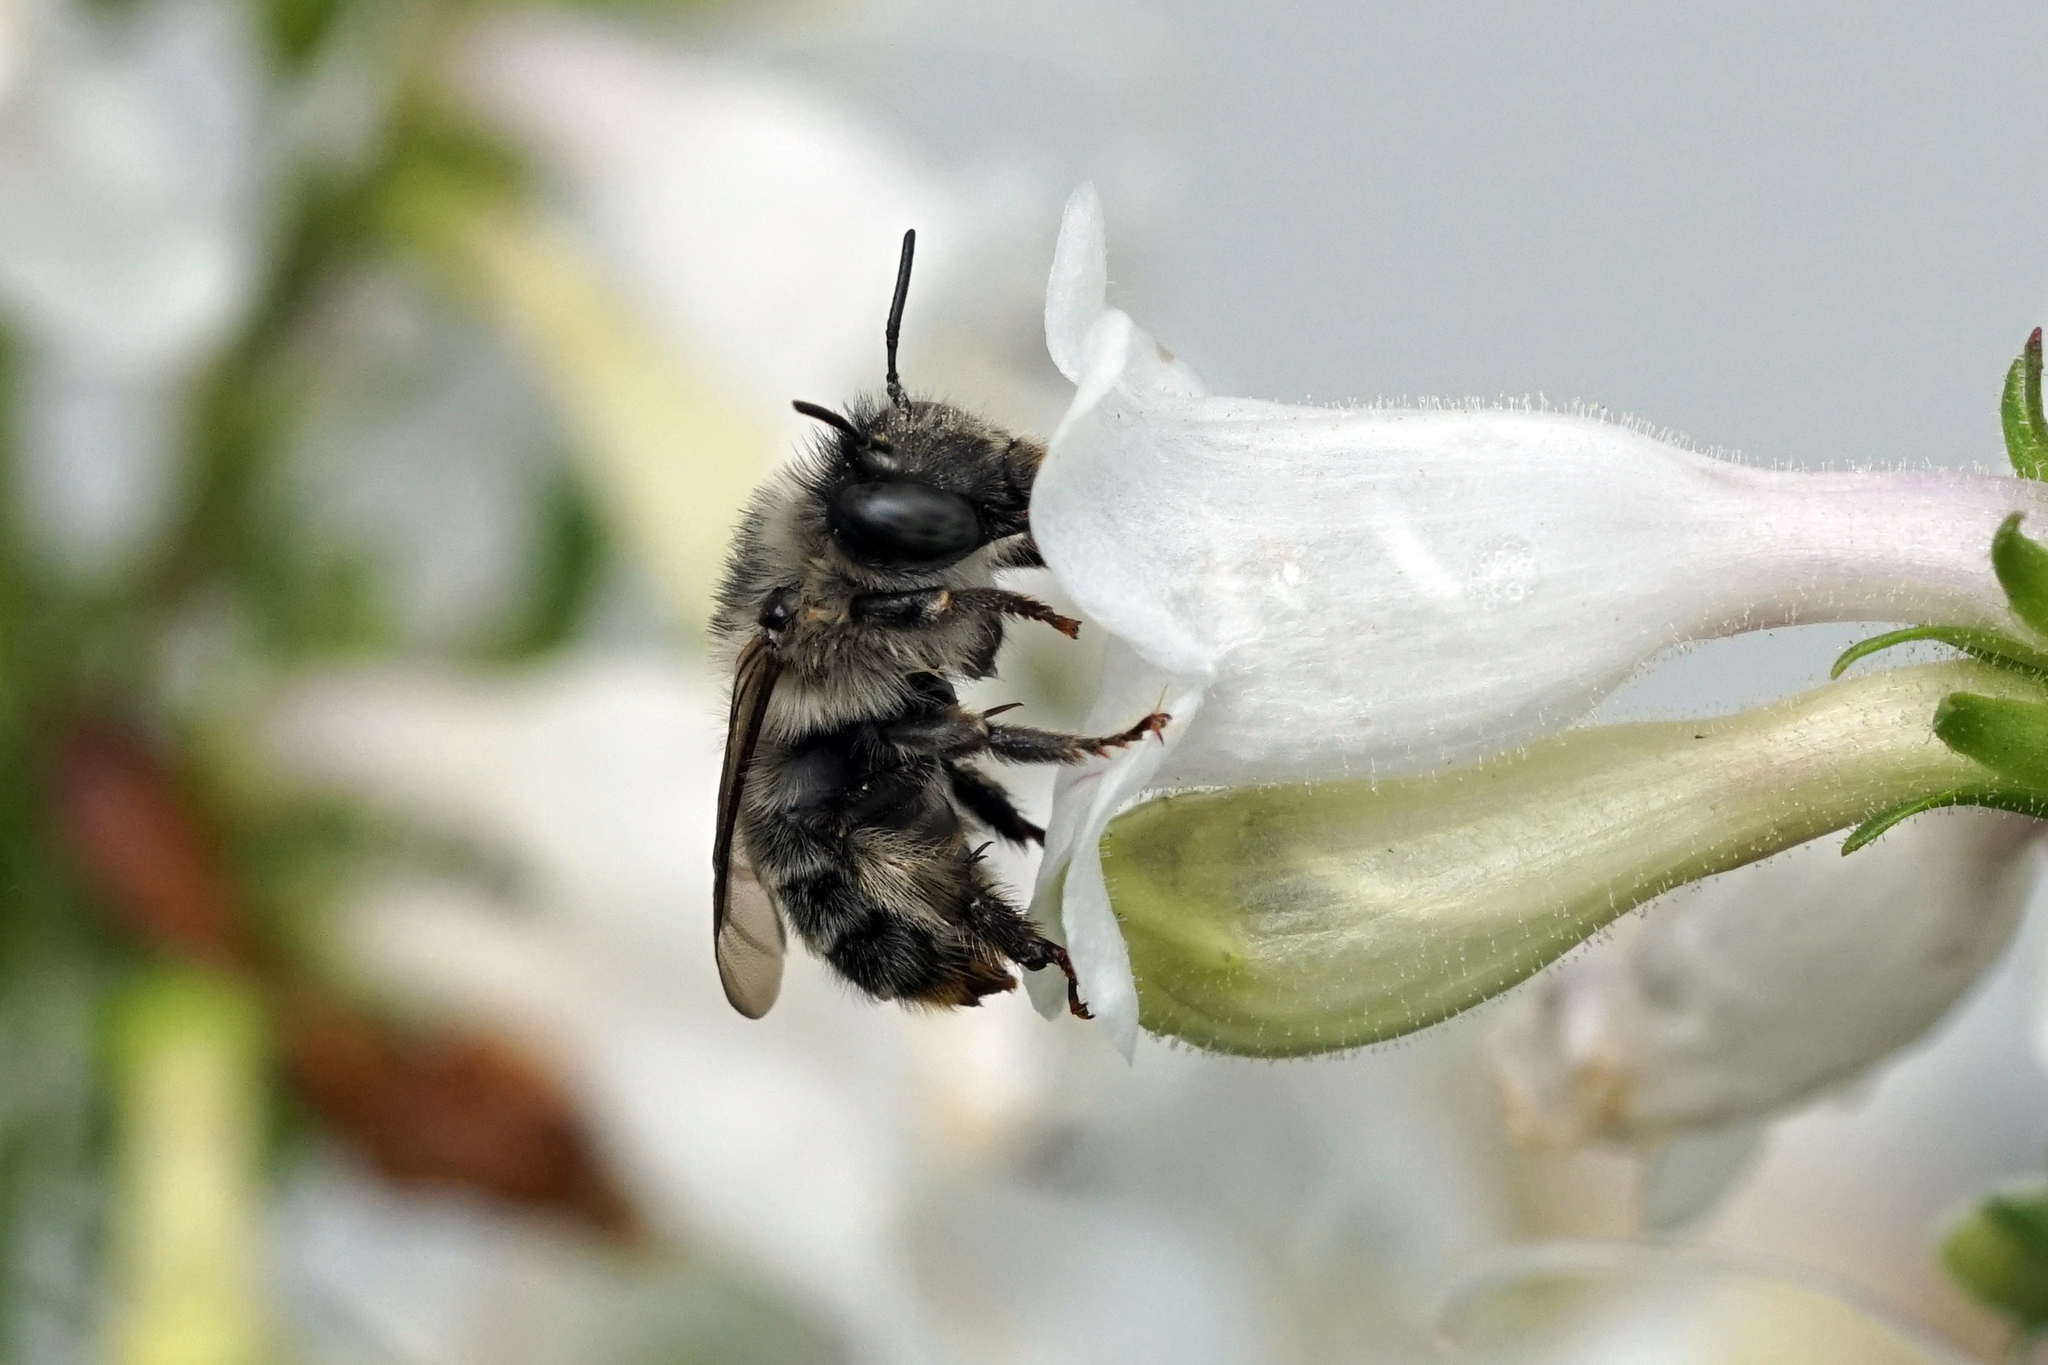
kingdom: Animalia
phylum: Arthropoda
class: Insecta
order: Hymenoptera
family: Apidae
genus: Anthophora
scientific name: Anthophora terminalis
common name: Orange-tipped wood-digger bee
